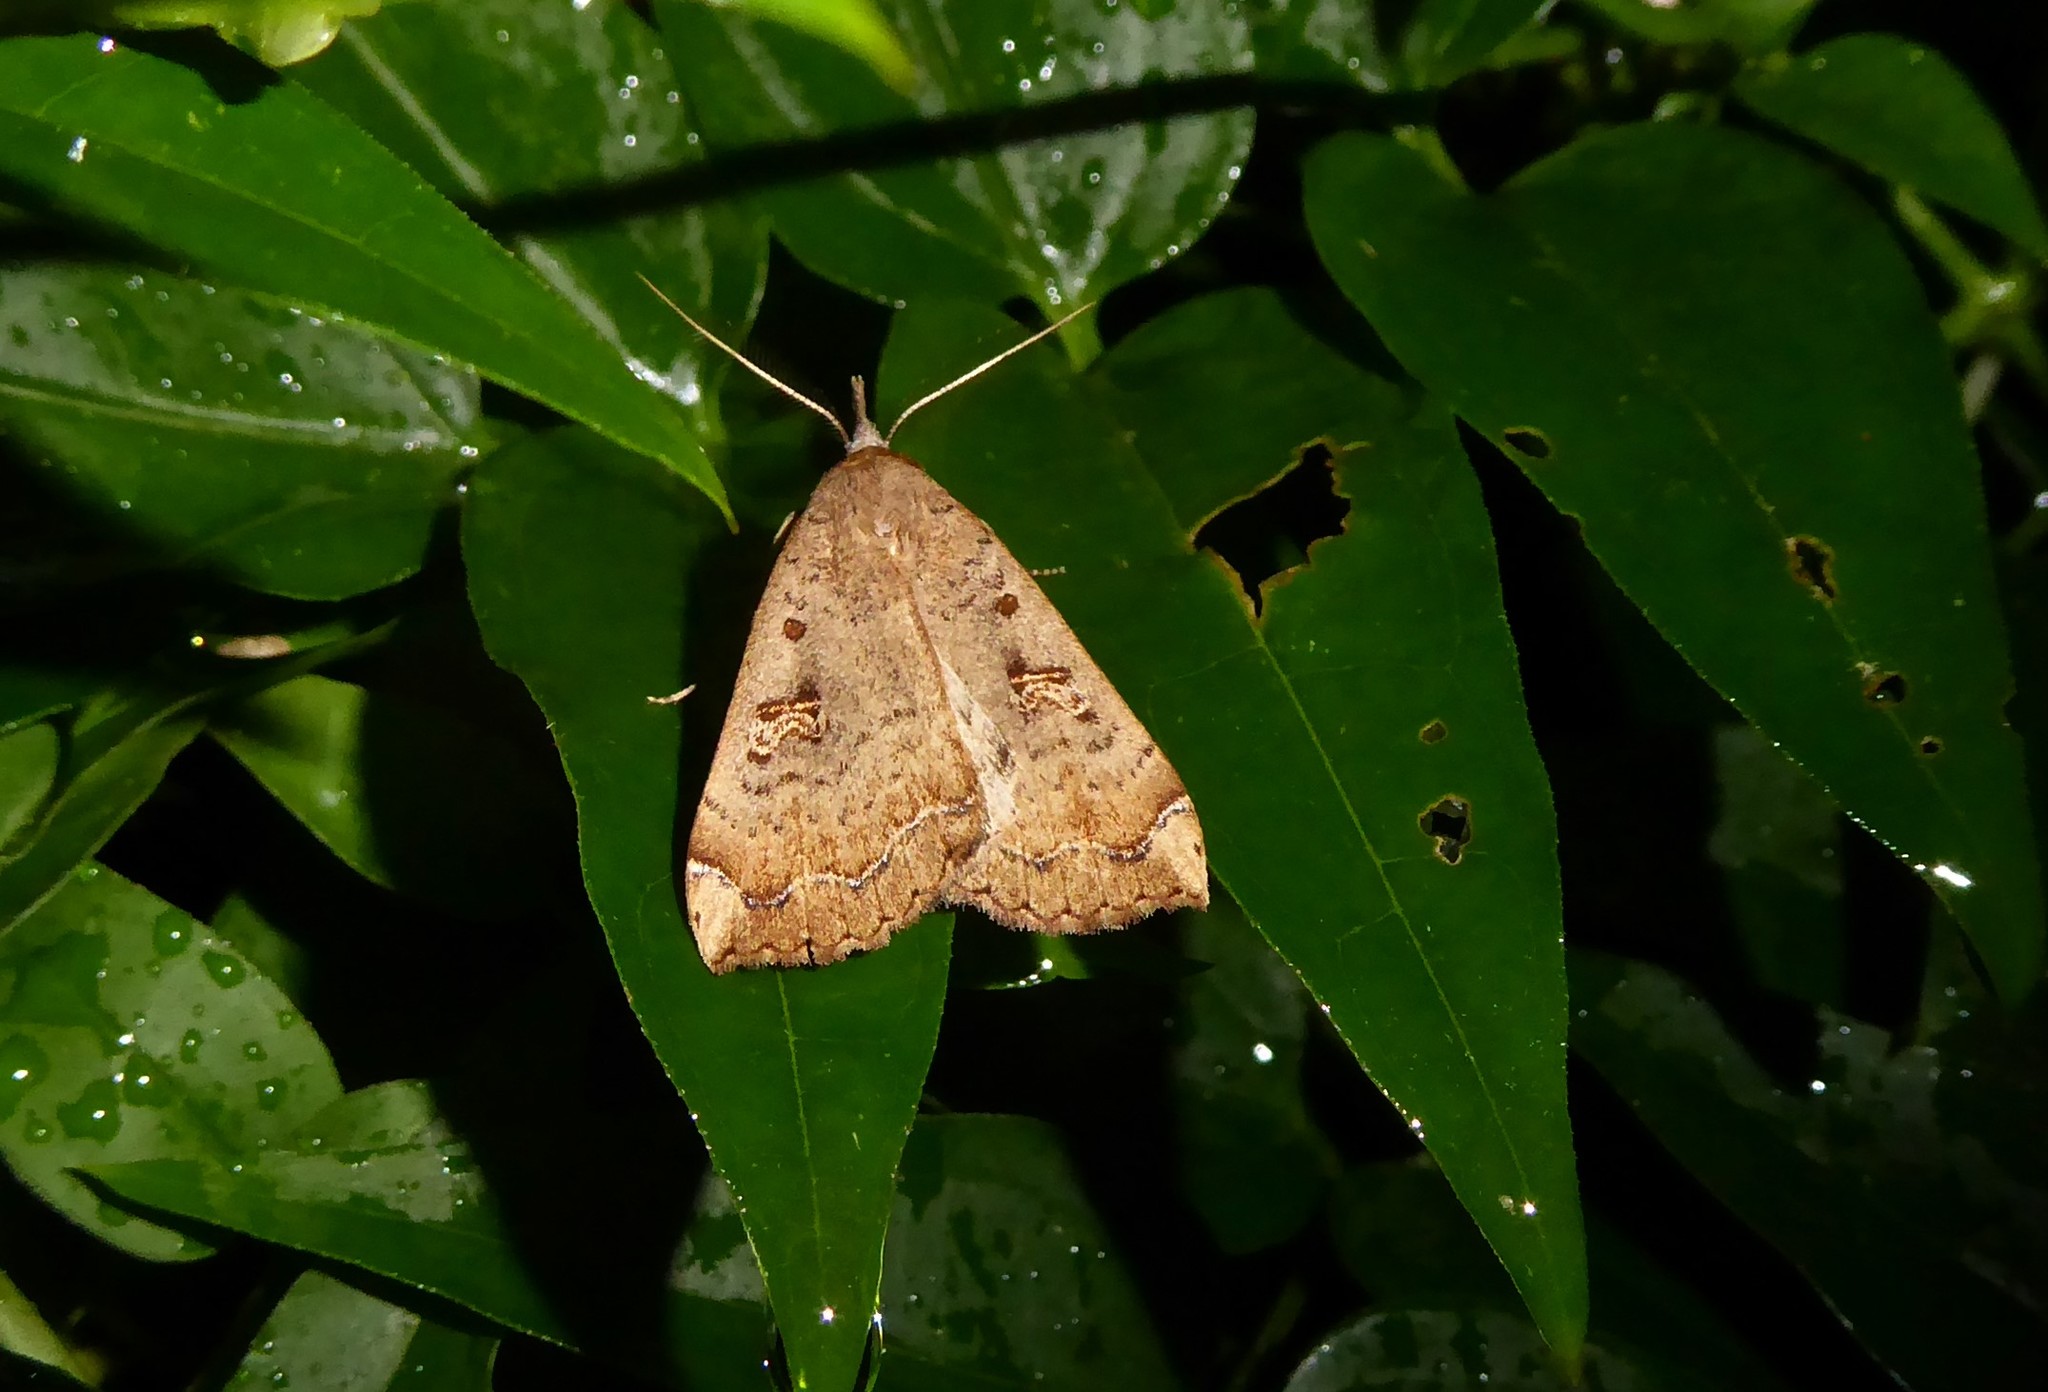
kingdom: Animalia
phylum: Arthropoda
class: Insecta
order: Lepidoptera
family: Erebidae
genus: Rhapsa
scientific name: Rhapsa scotosialis
